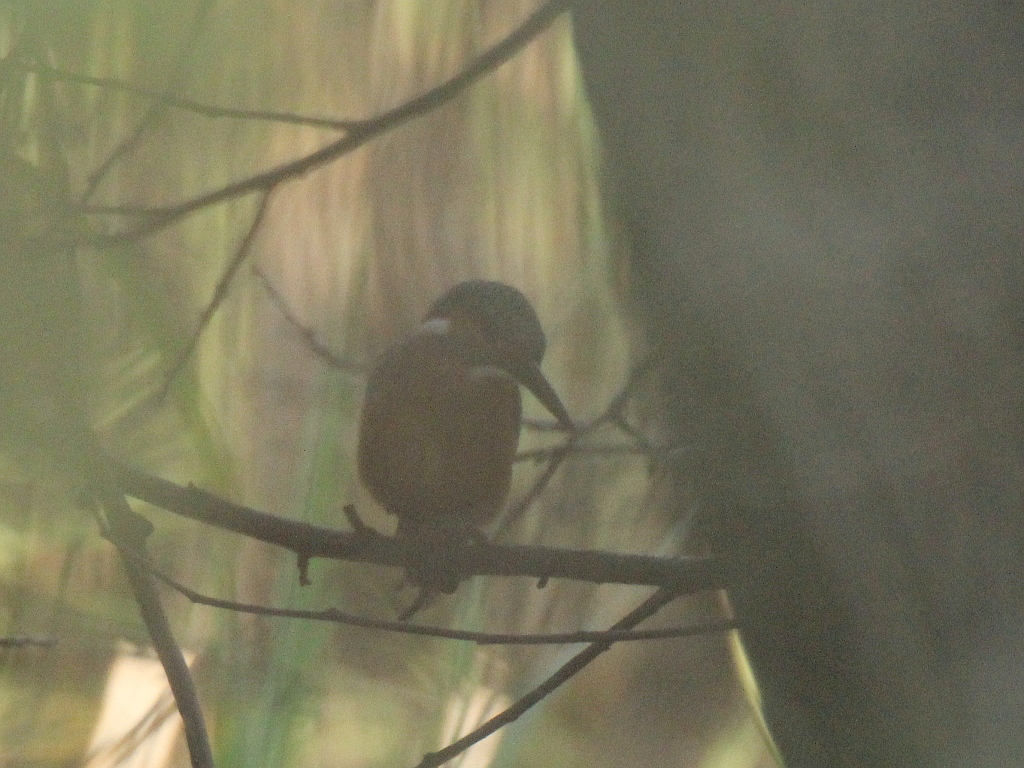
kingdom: Animalia
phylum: Chordata
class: Aves
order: Coraciiformes
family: Alcedinidae
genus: Alcedo
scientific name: Alcedo atthis
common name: Common kingfisher
